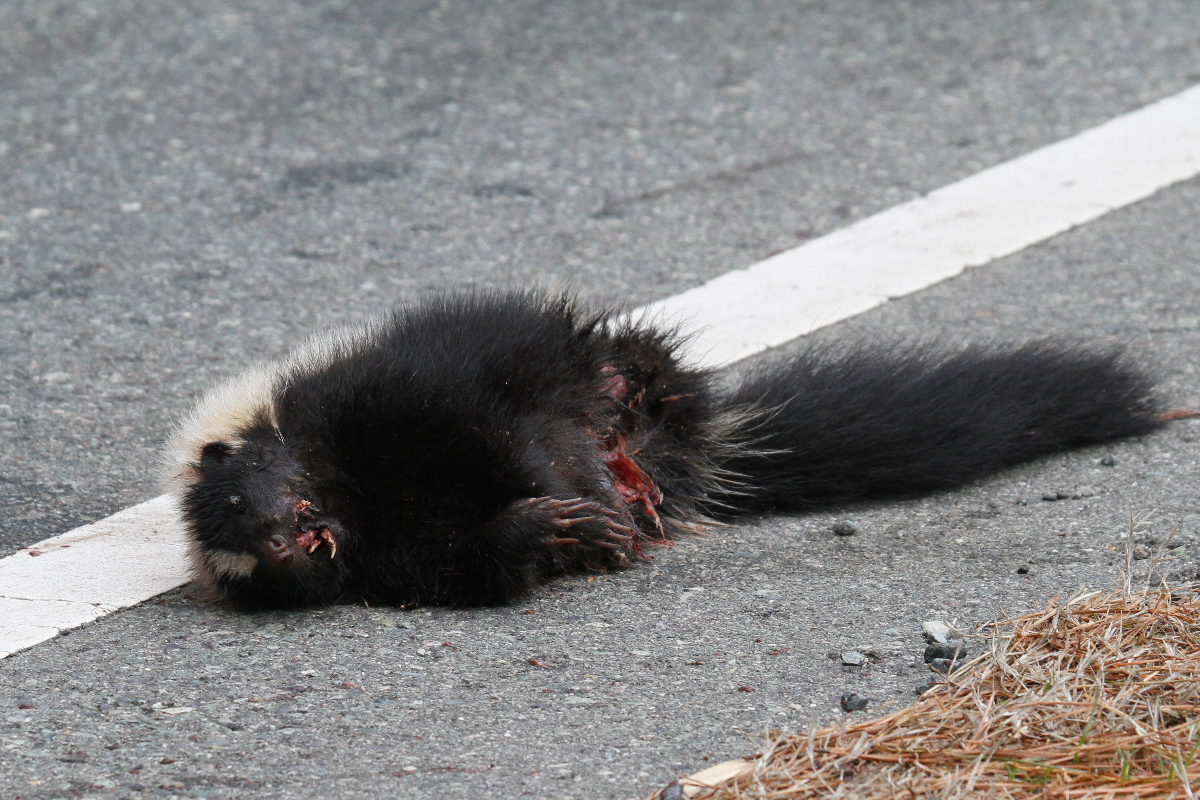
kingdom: Animalia
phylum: Chordata
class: Mammalia
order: Carnivora
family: Mephitidae
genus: Mephitis
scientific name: Mephitis mephitis
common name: Striped skunk
